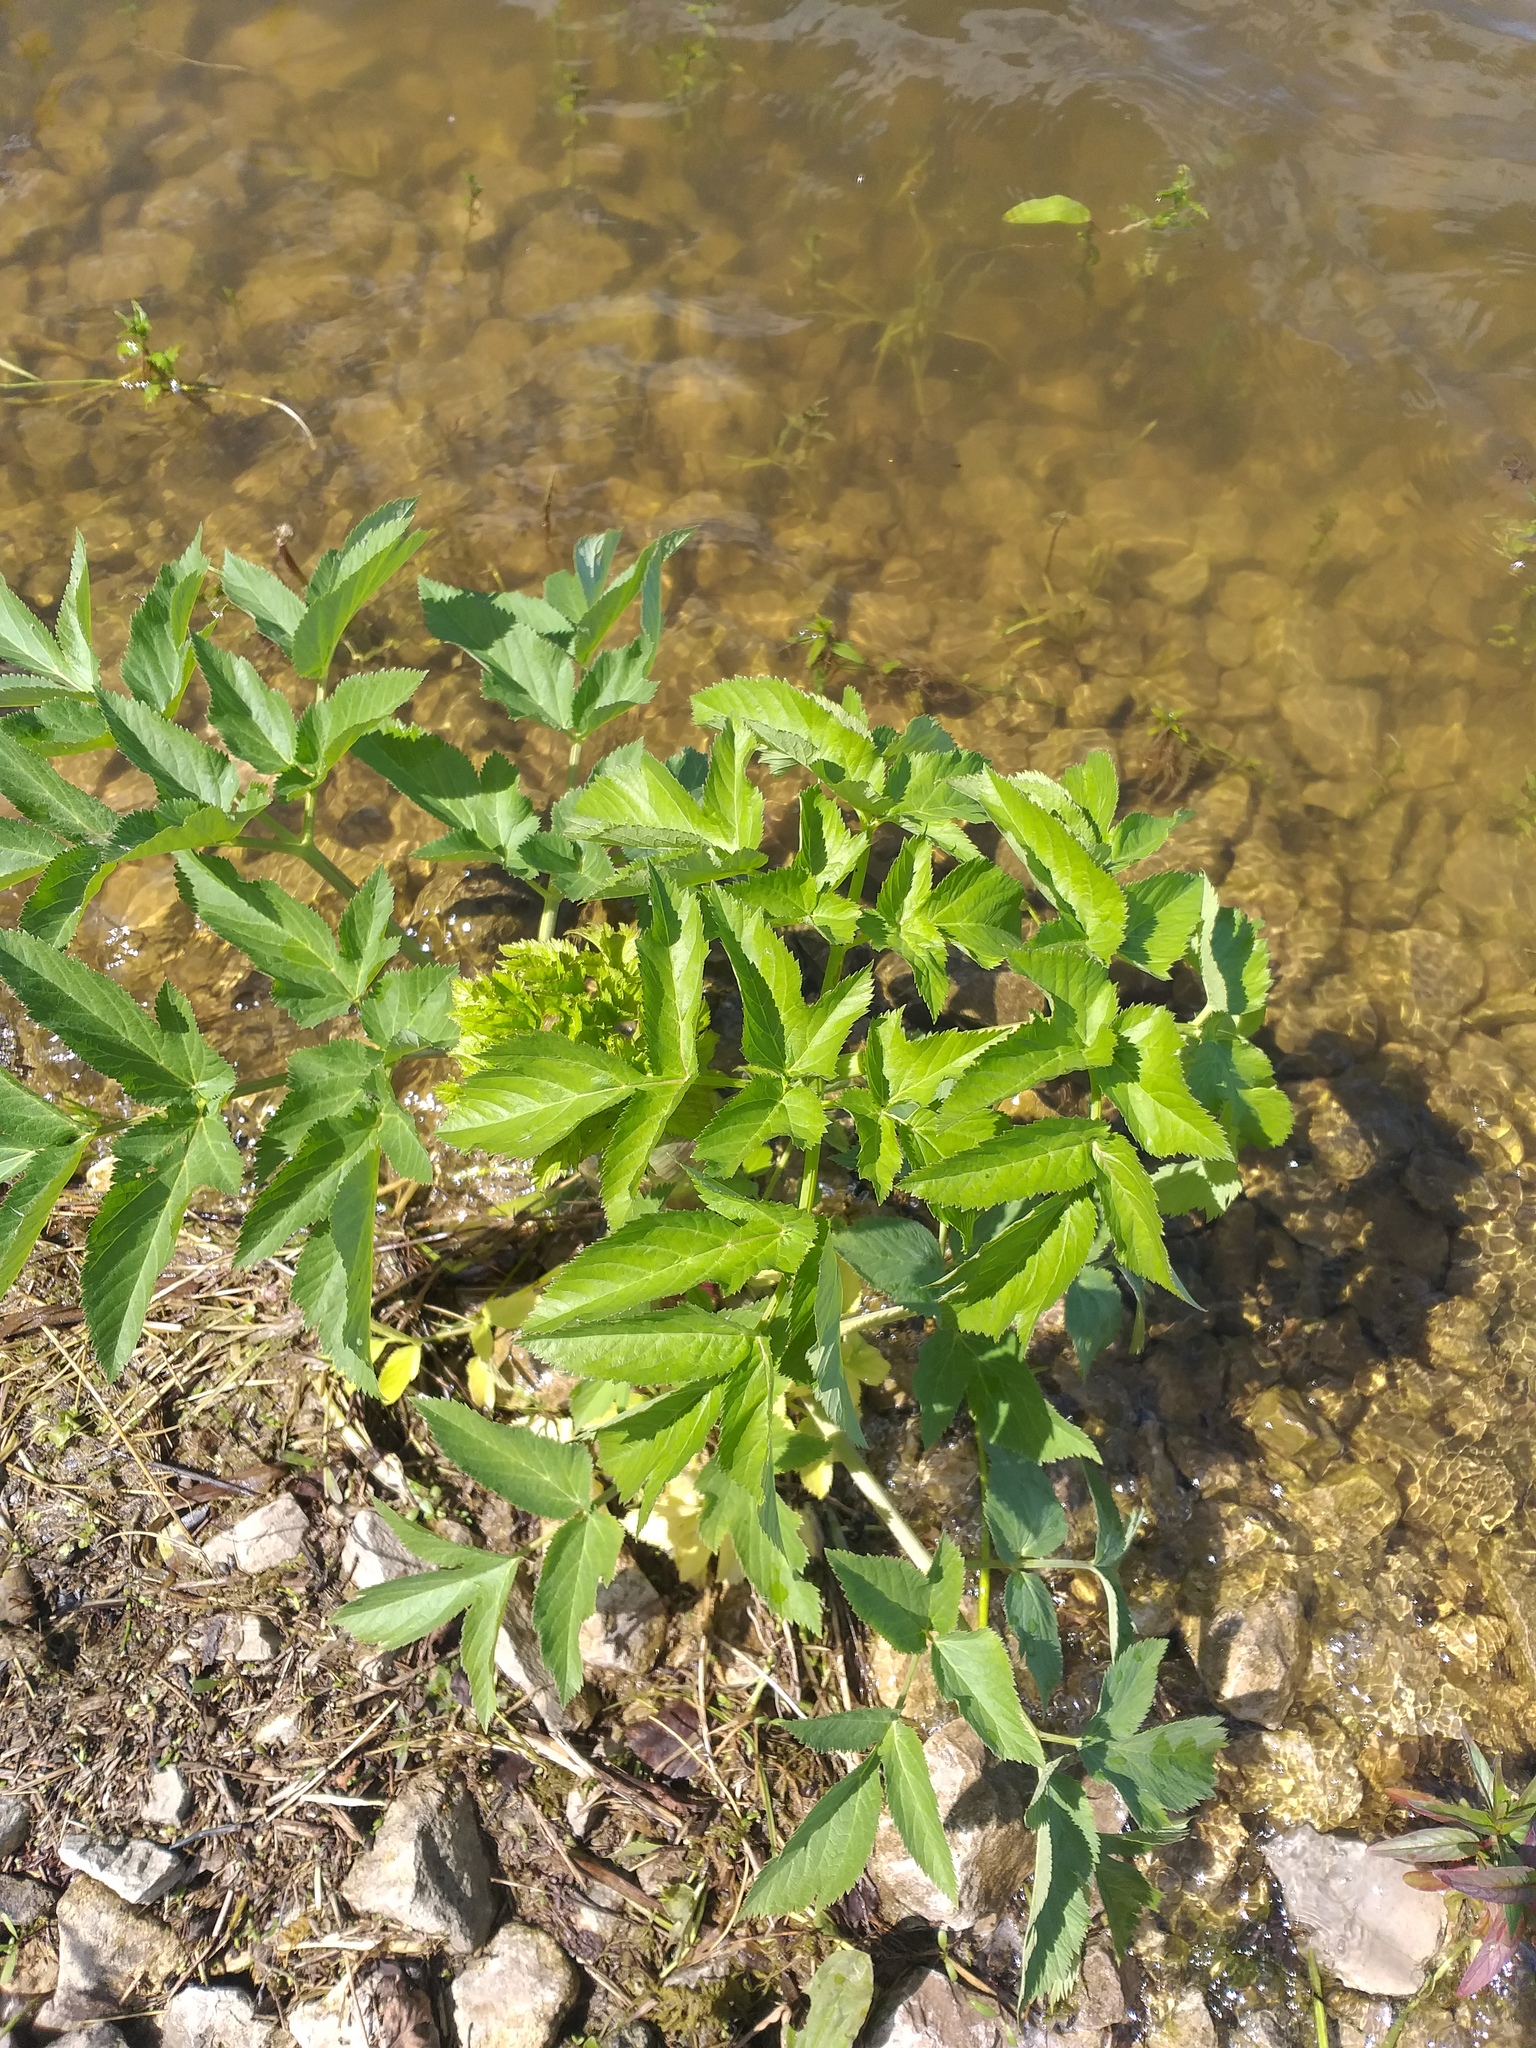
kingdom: Plantae
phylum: Tracheophyta
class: Magnoliopsida
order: Apiales
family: Apiaceae
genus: Angelica
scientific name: Angelica archangelica
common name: Garden angelica
